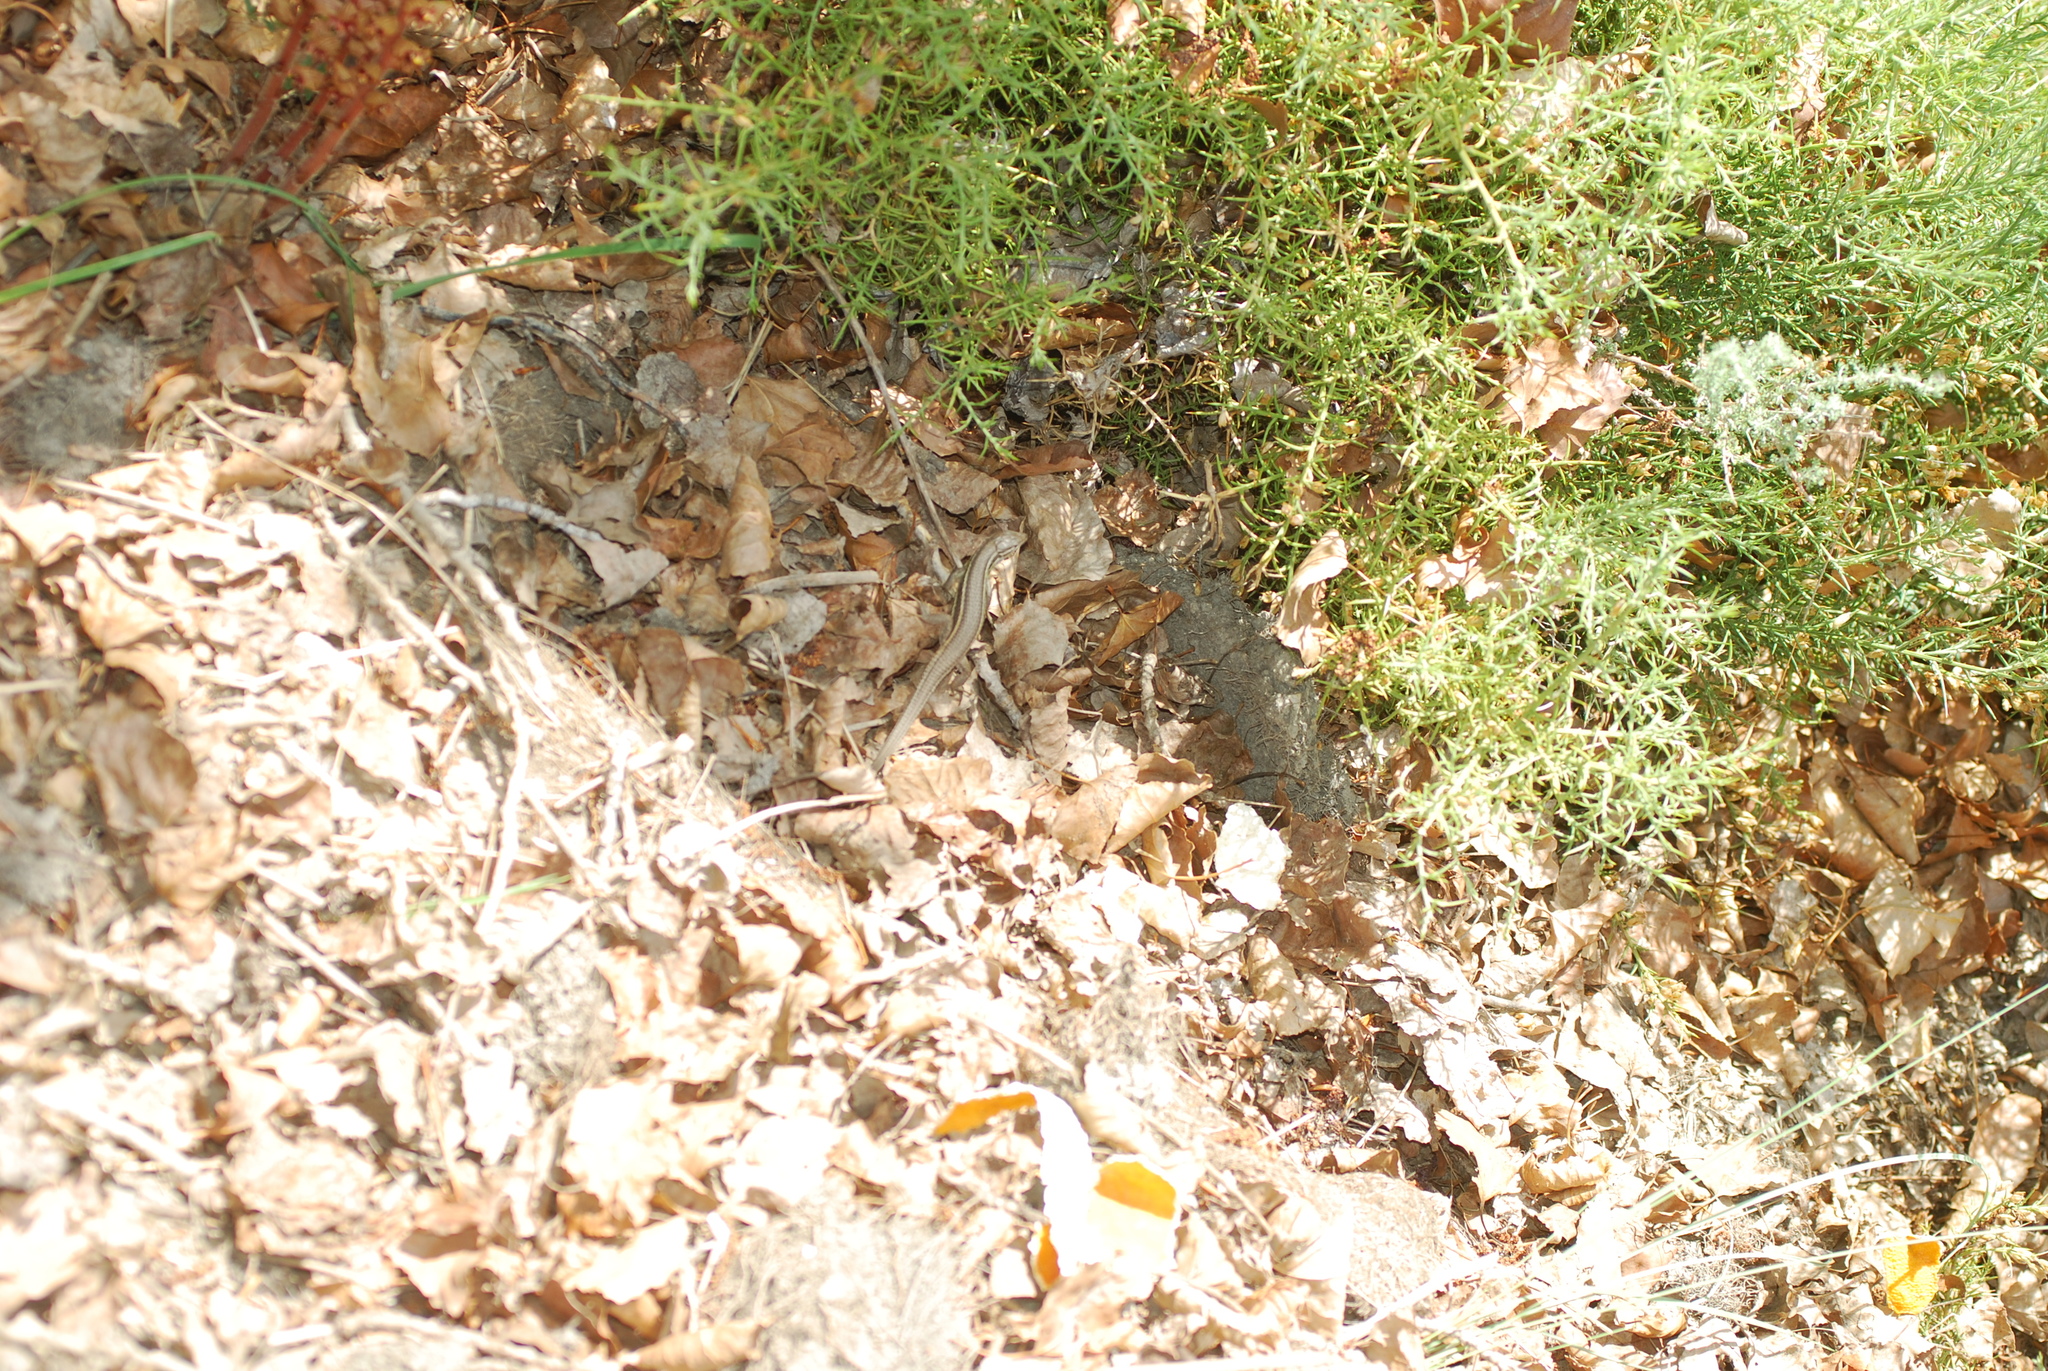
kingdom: Animalia
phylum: Chordata
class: Squamata
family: Lacertidae
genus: Psammodromus
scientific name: Psammodromus algirus
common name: Algerian psammodromus
